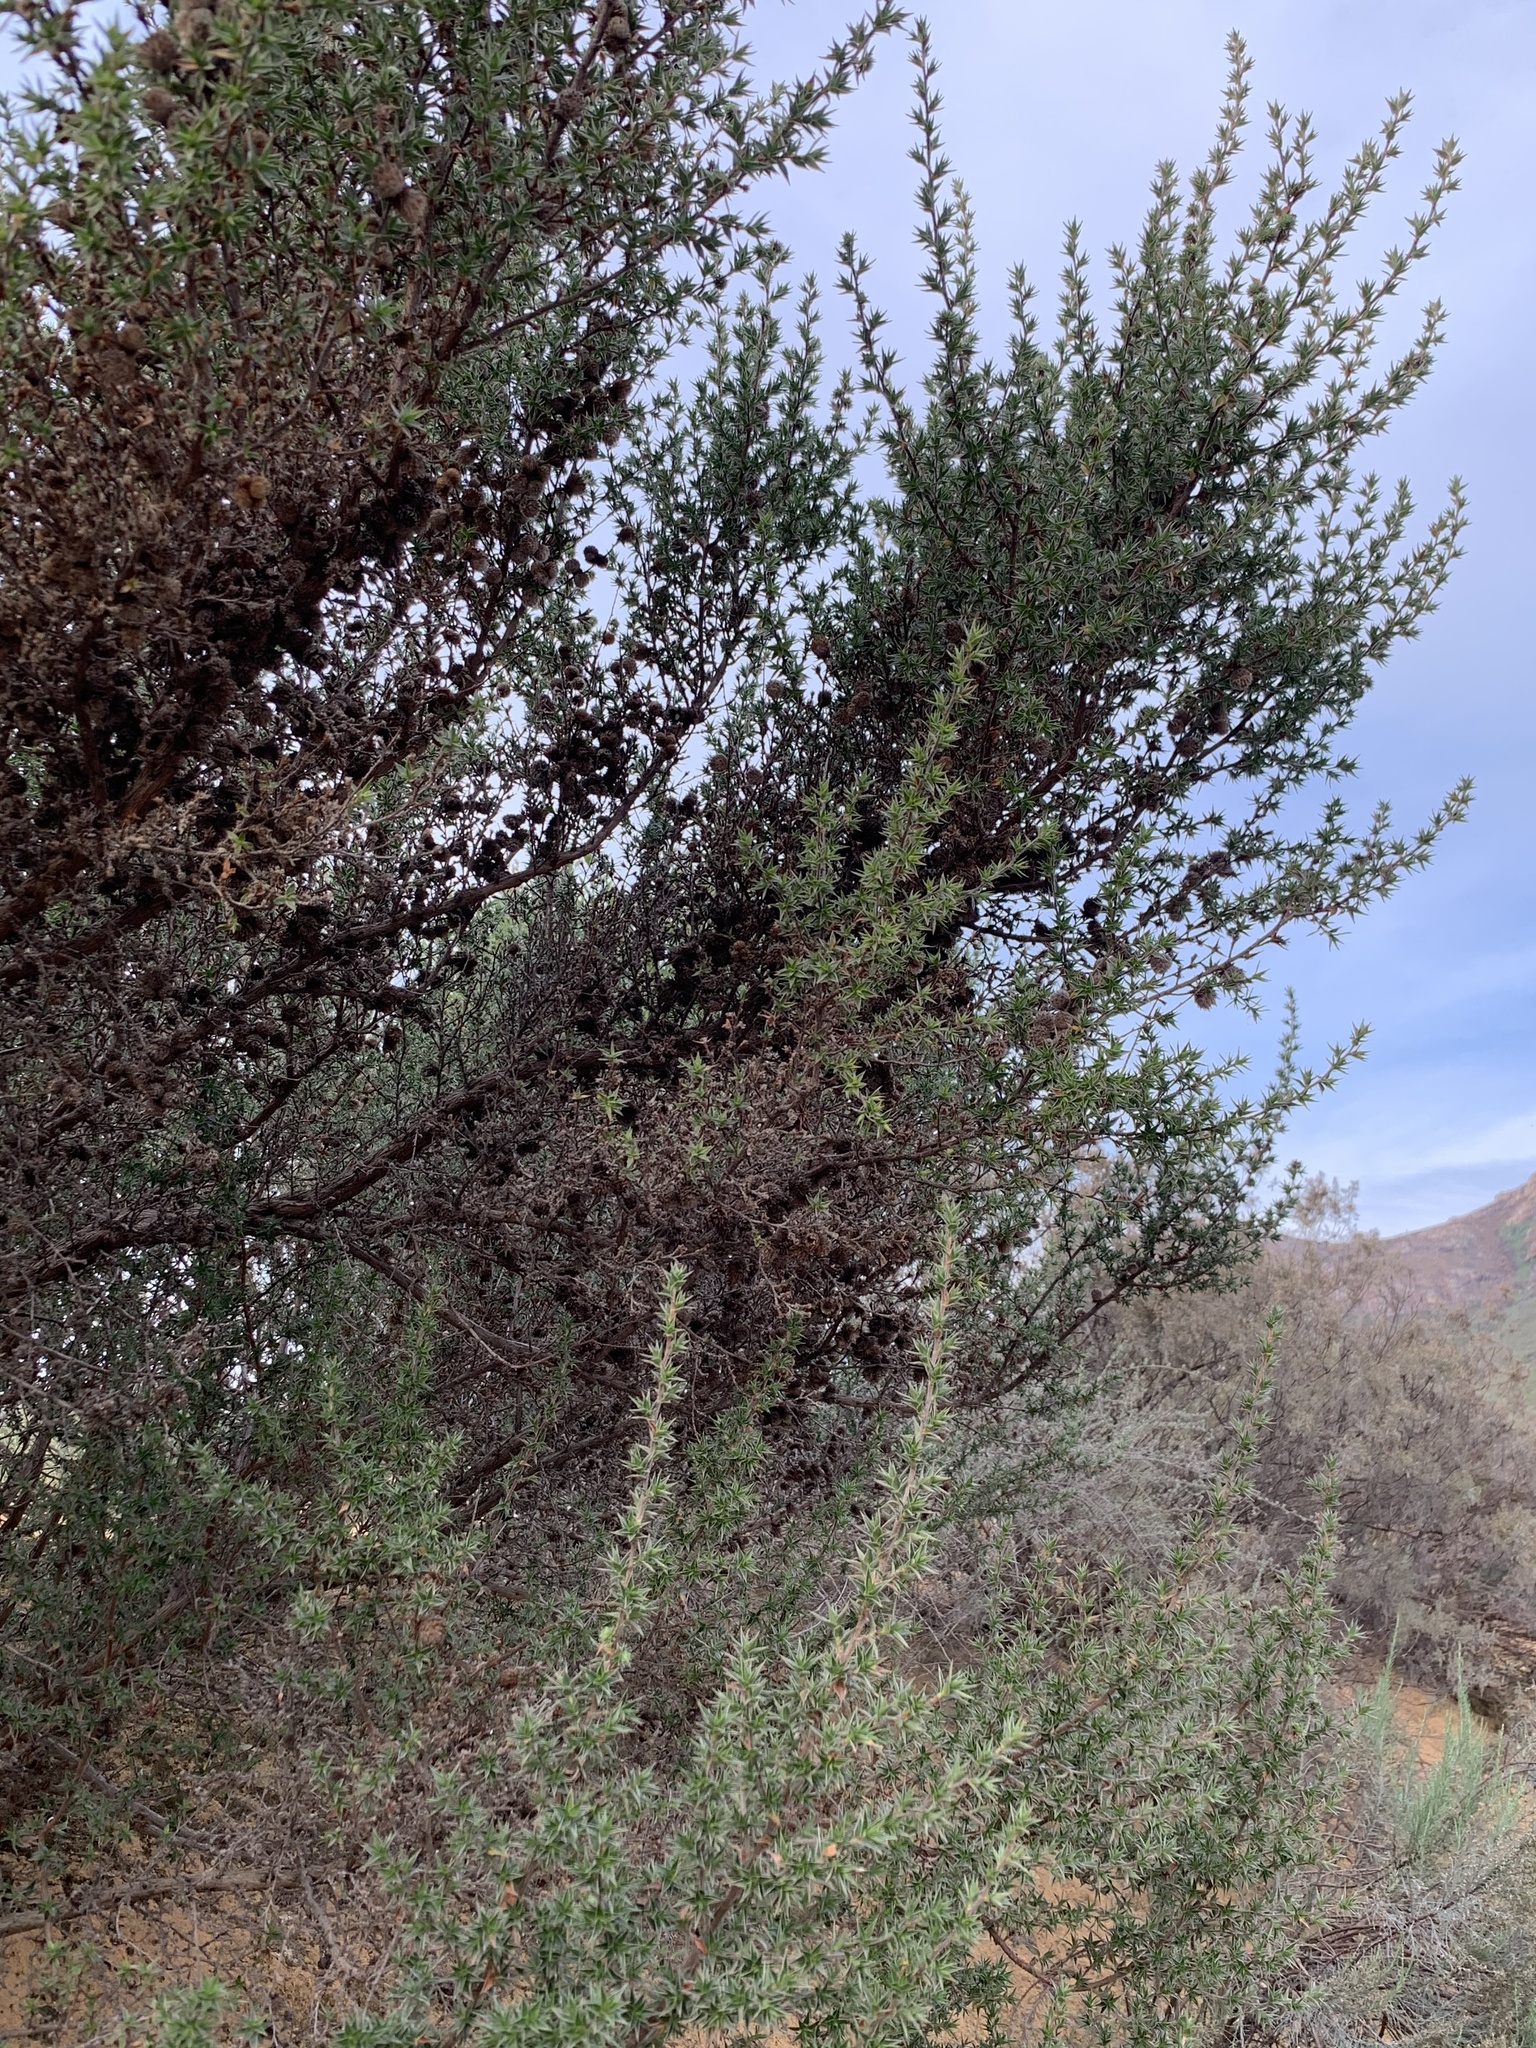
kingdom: Plantae
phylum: Tracheophyta
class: Magnoliopsida
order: Rosales
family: Rosaceae
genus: Cliffortia
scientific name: Cliffortia ruscifolia
